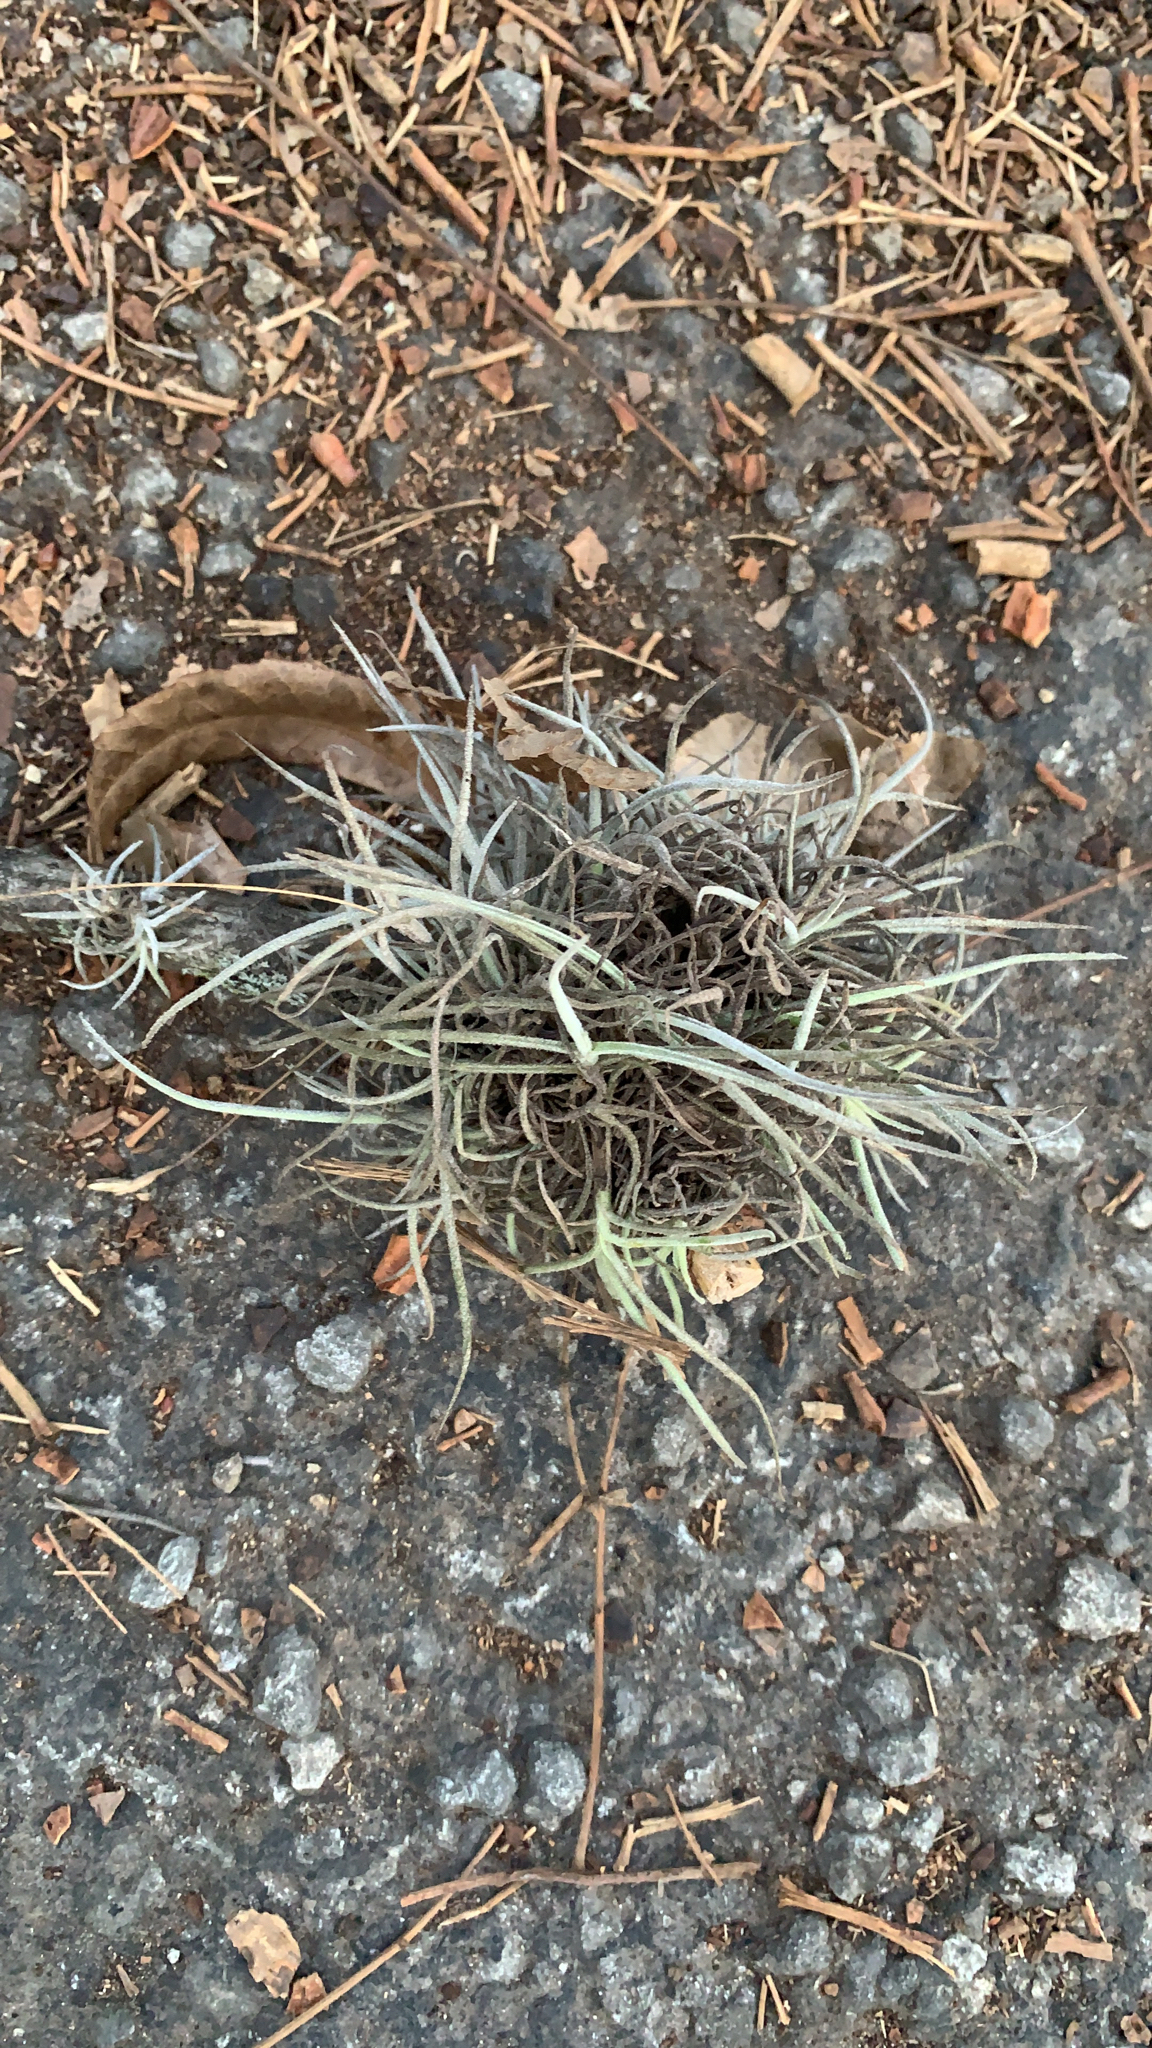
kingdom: Plantae
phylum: Tracheophyta
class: Liliopsida
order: Poales
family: Bromeliaceae
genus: Tillandsia
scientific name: Tillandsia recurvata
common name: Small ballmoss
